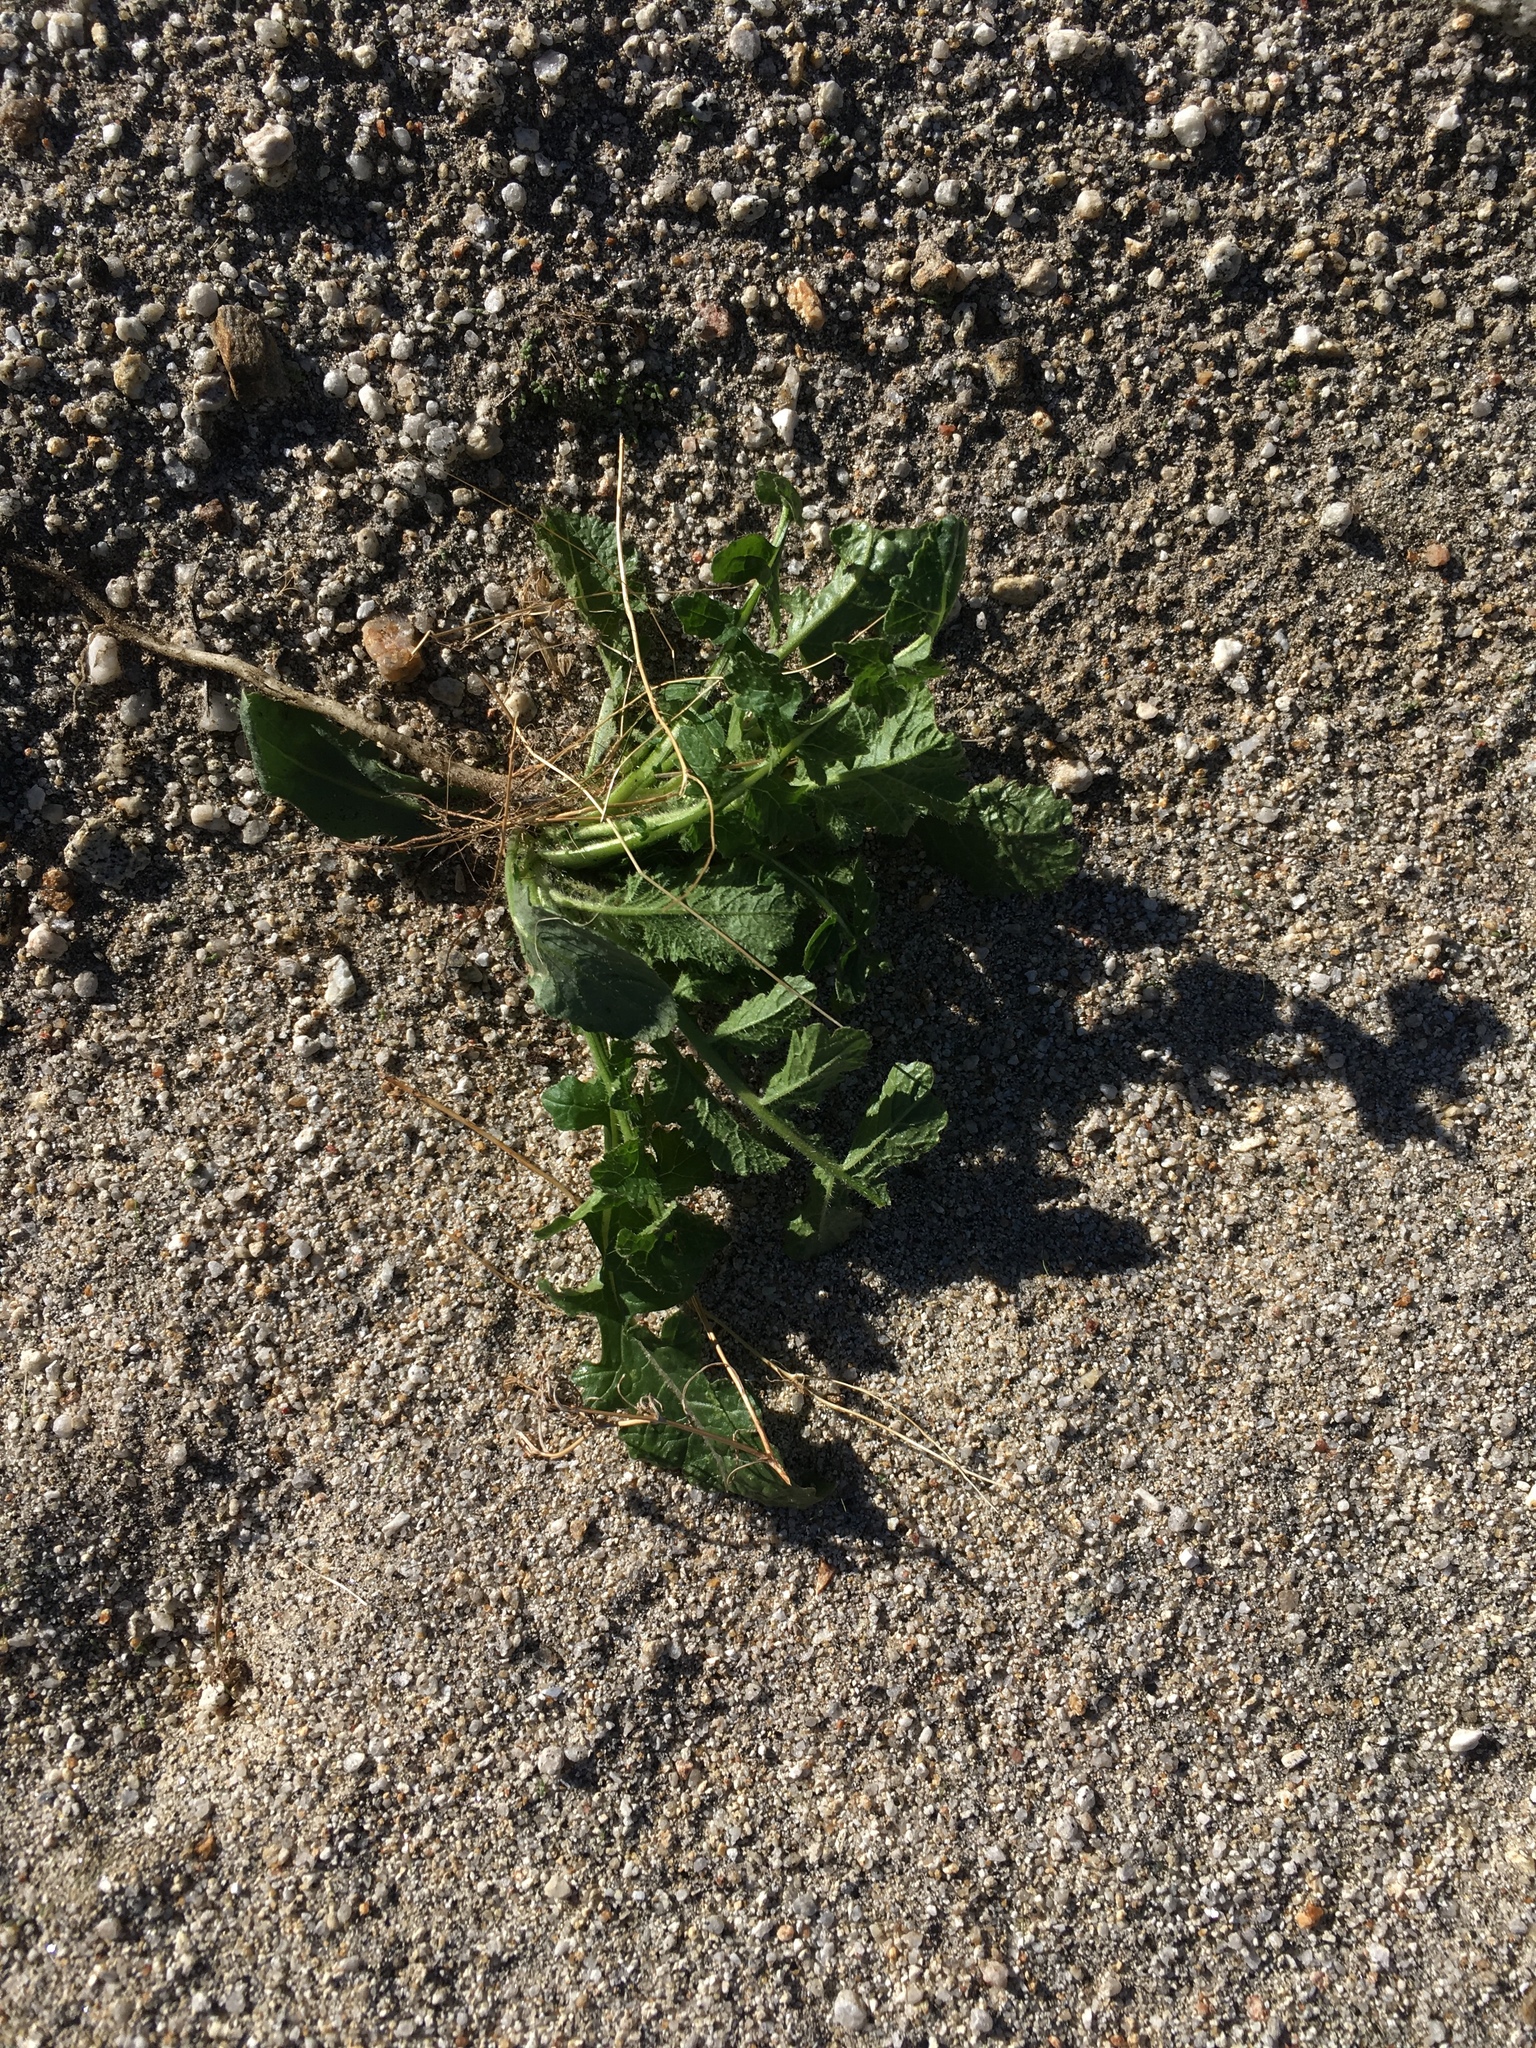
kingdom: Plantae
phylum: Tracheophyta
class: Magnoliopsida
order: Brassicales
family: Brassicaceae
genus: Brassica
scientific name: Brassica tournefortii
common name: Pale cabbage
